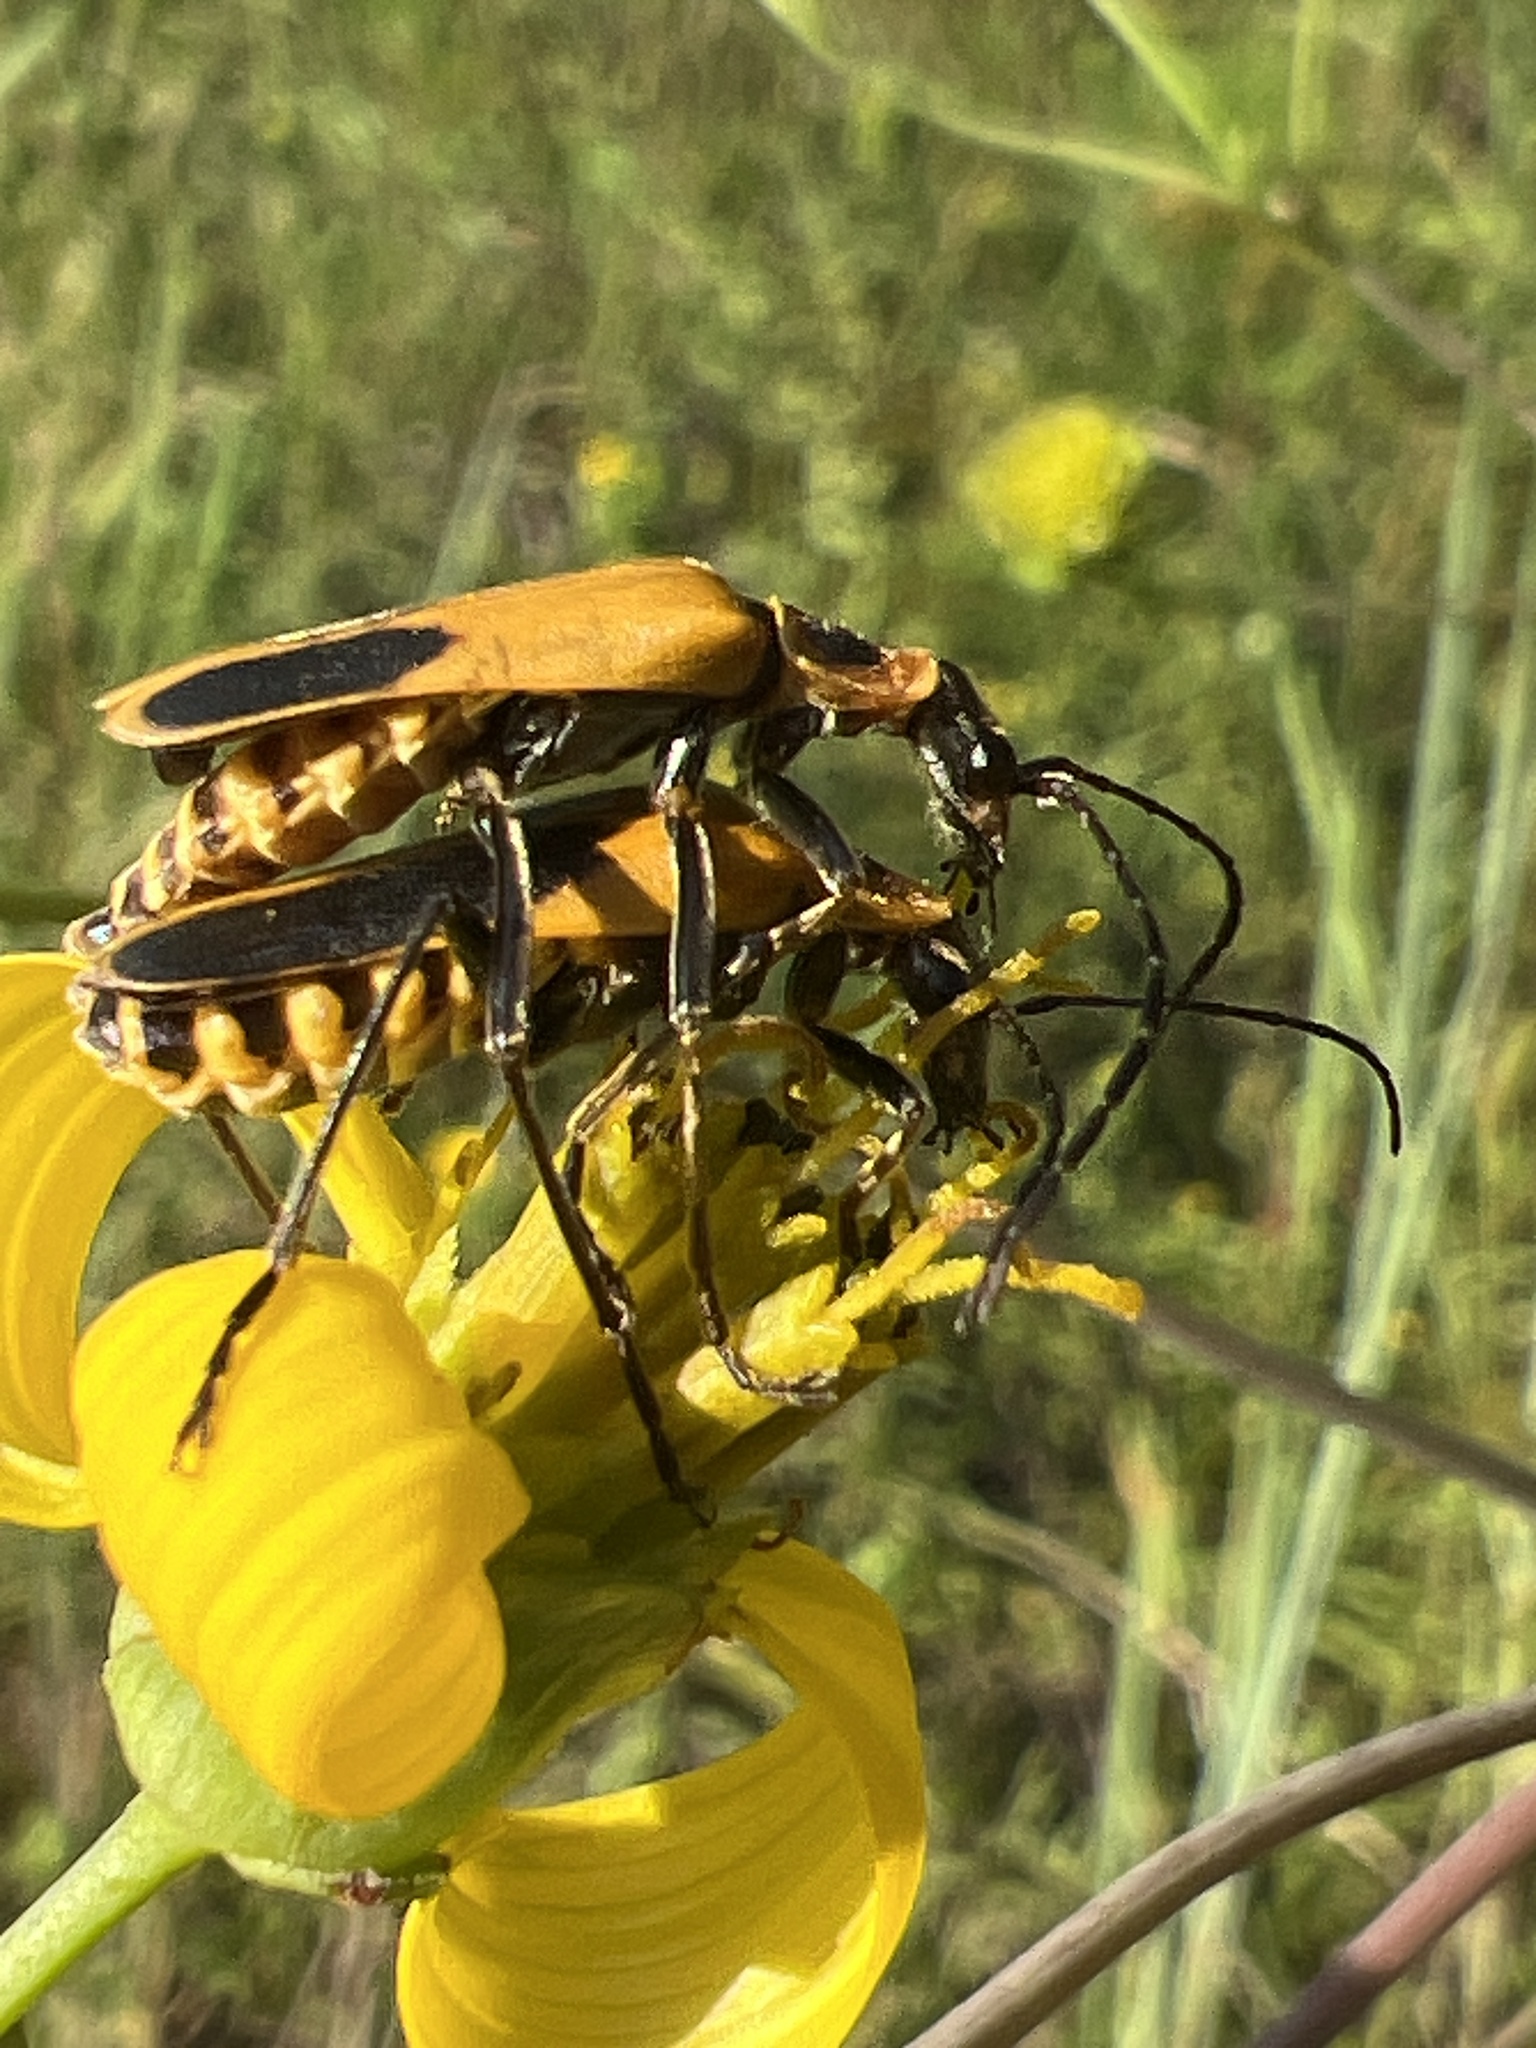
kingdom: Animalia
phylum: Arthropoda
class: Insecta
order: Coleoptera
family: Cantharidae
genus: Chauliognathus
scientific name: Chauliognathus pensylvanicus
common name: Goldenrod soldier beetle
